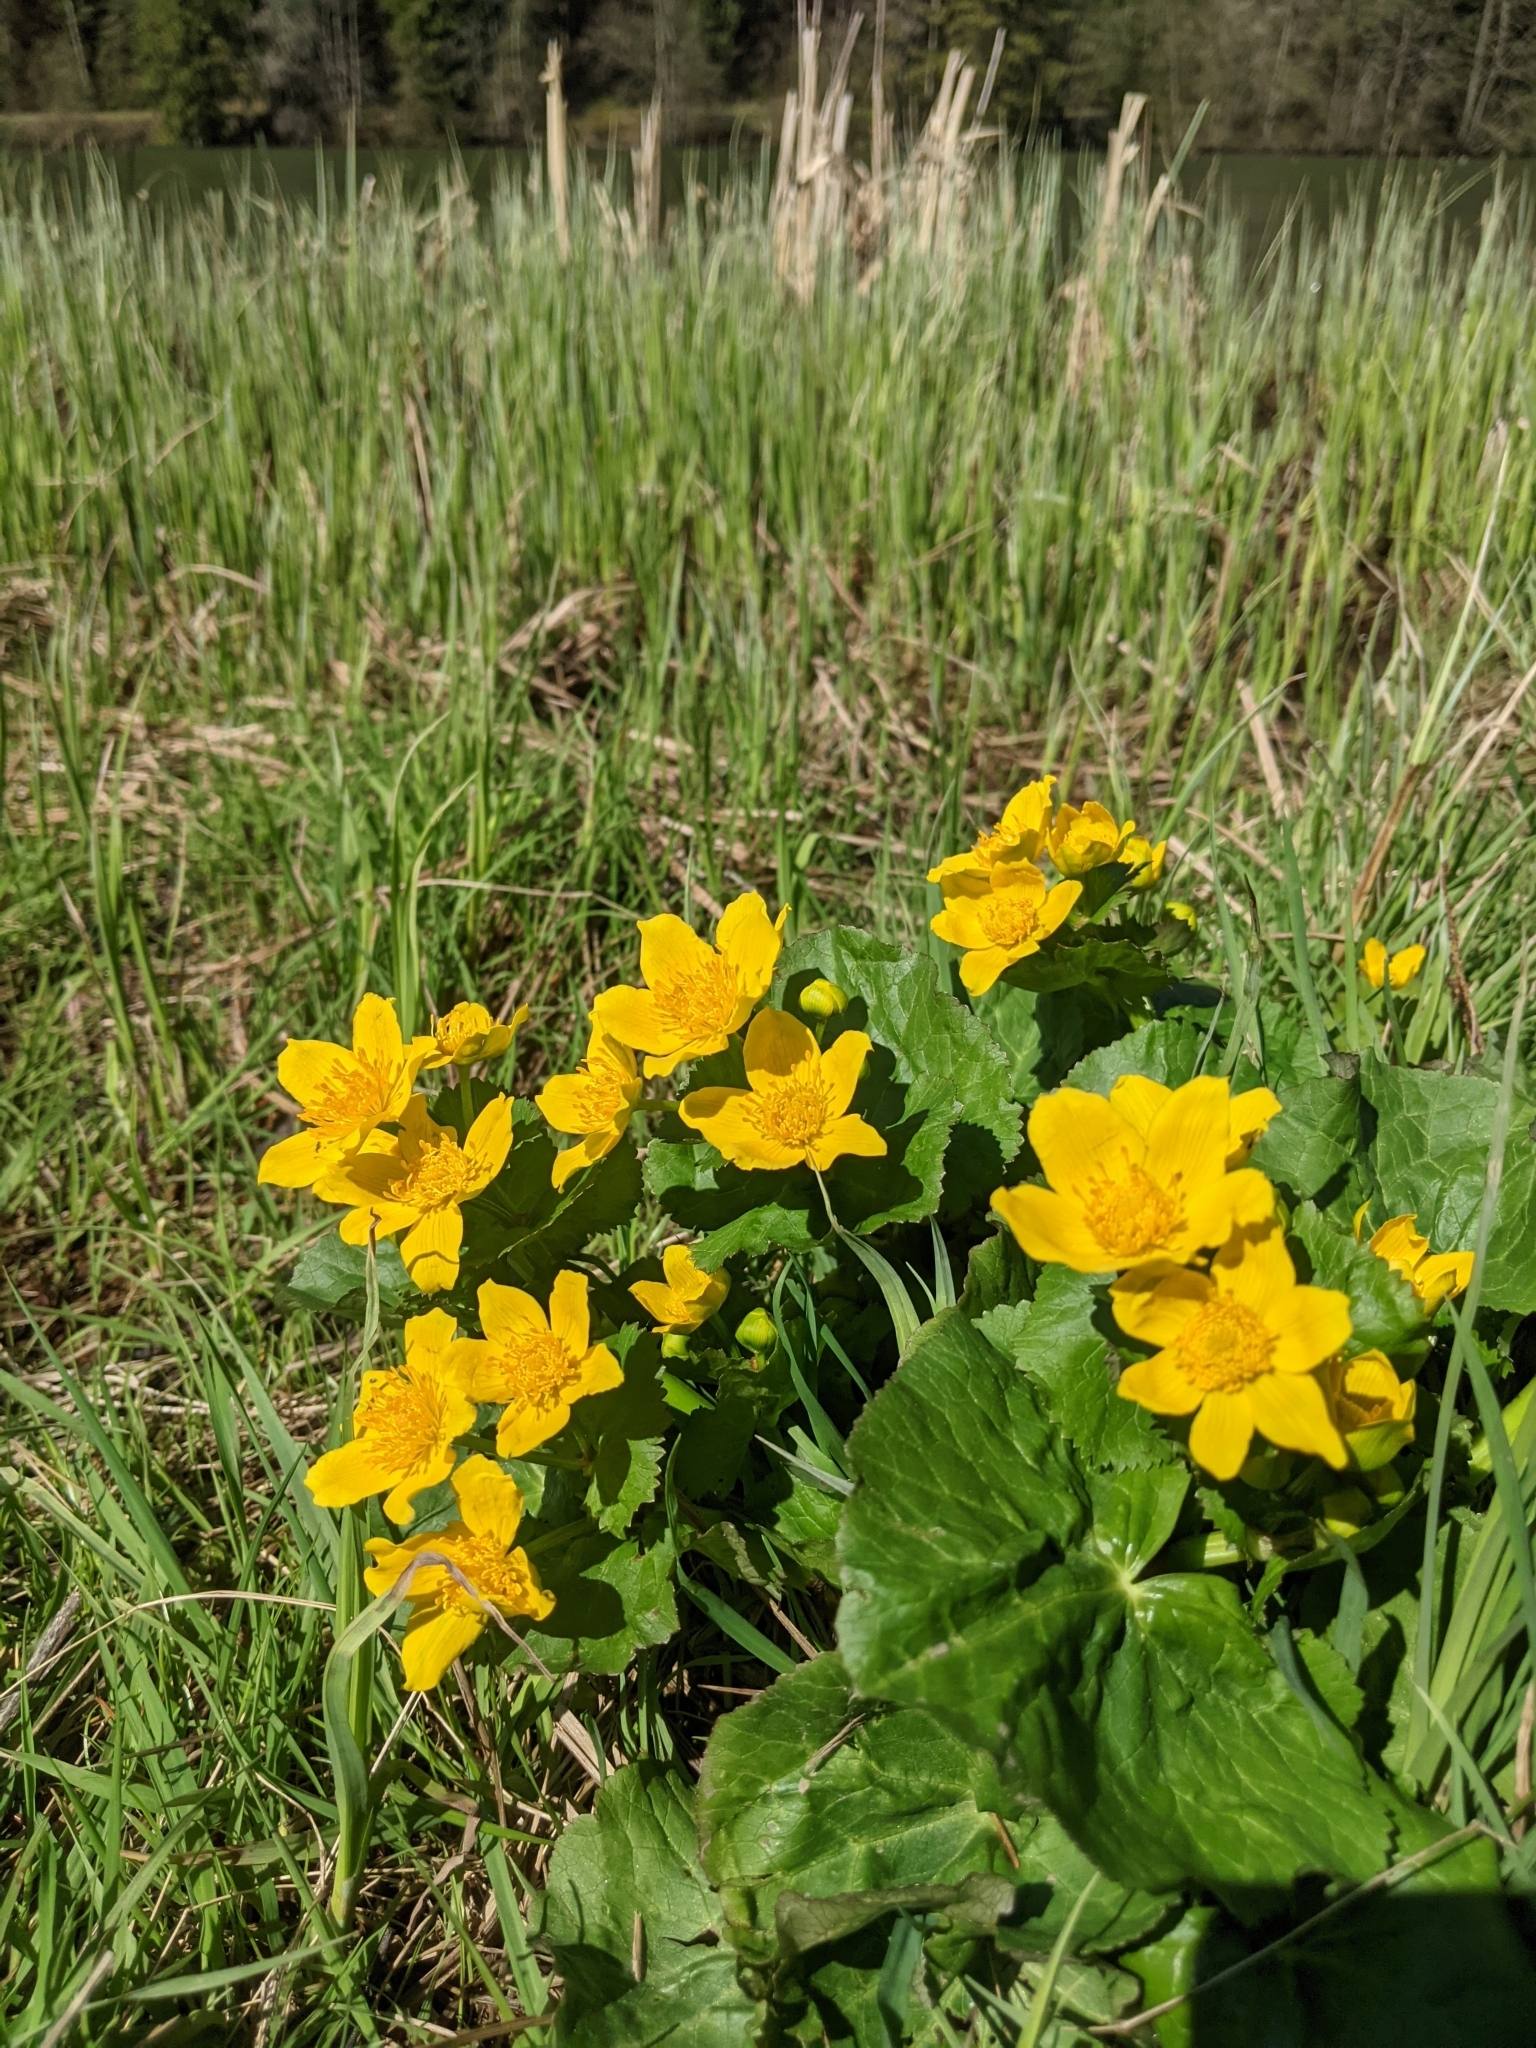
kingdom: Plantae
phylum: Tracheophyta
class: Magnoliopsida
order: Ranunculales
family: Ranunculaceae
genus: Caltha
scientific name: Caltha palustris
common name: Marsh marigold
